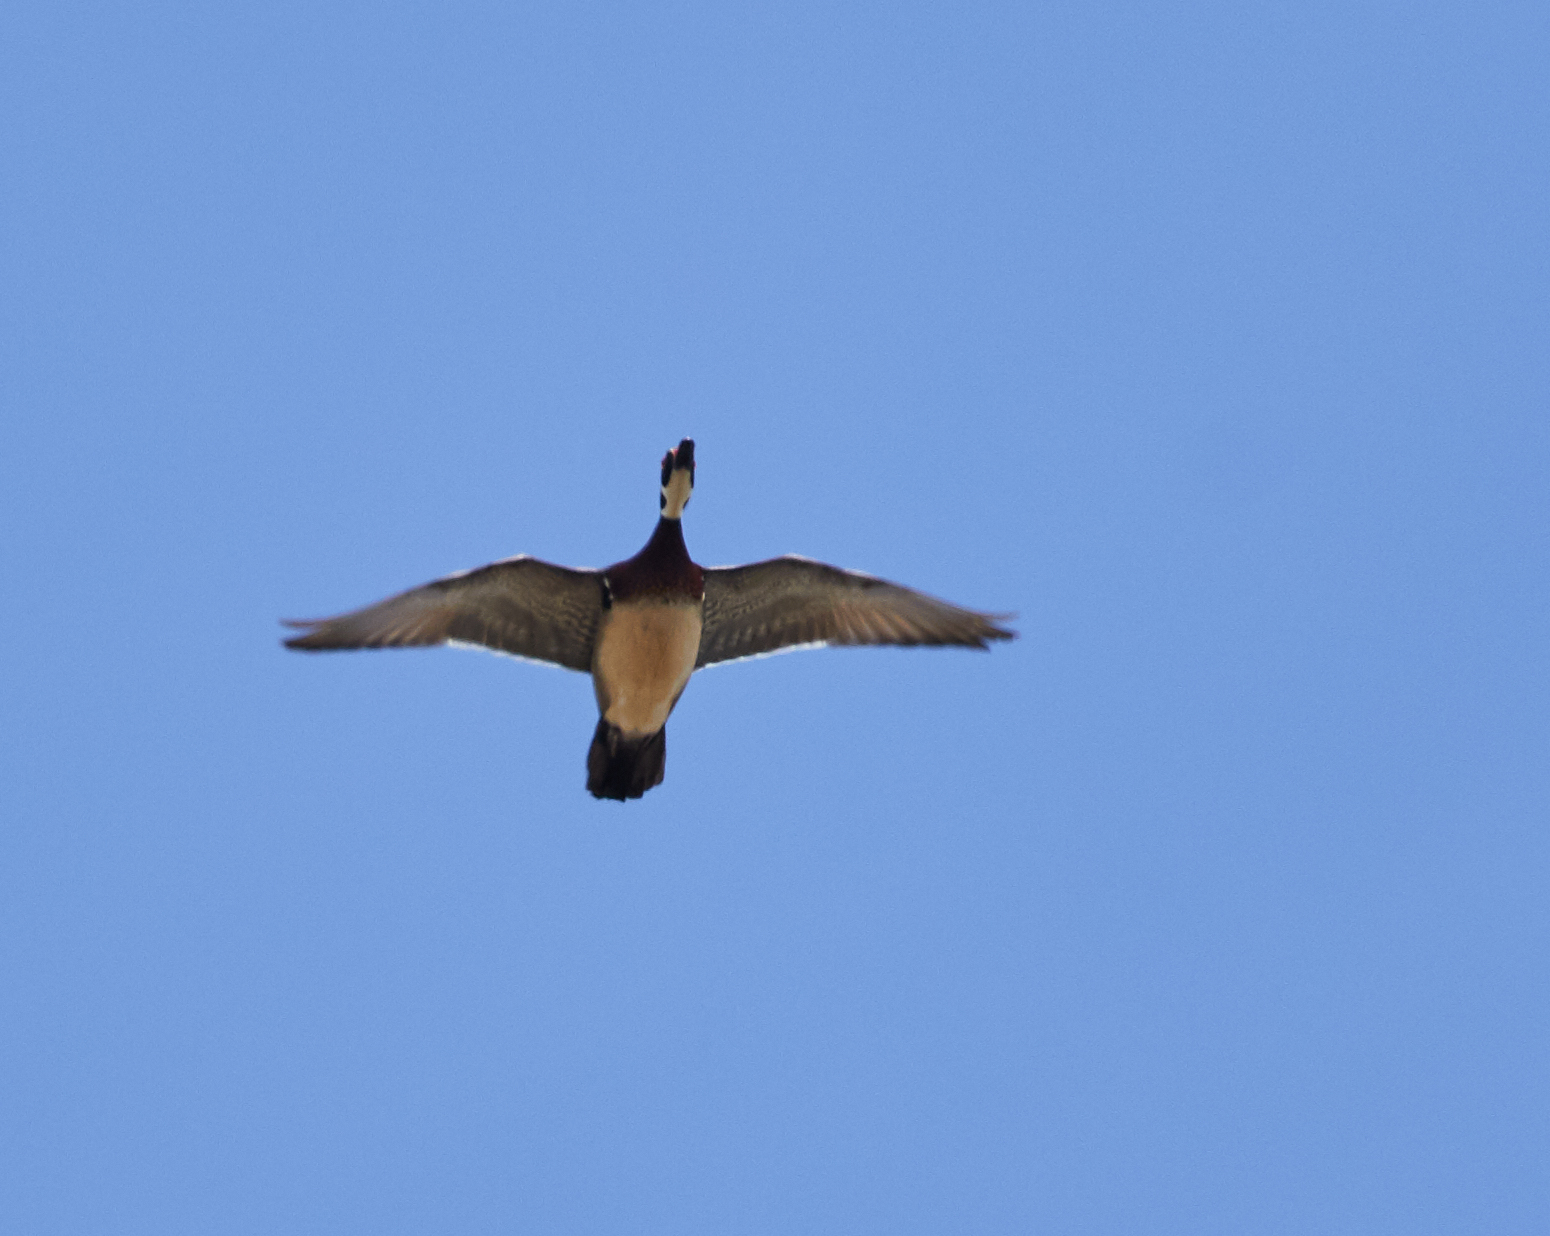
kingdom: Animalia
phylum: Chordata
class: Aves
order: Anseriformes
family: Anatidae
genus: Aix
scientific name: Aix sponsa
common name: Wood duck
